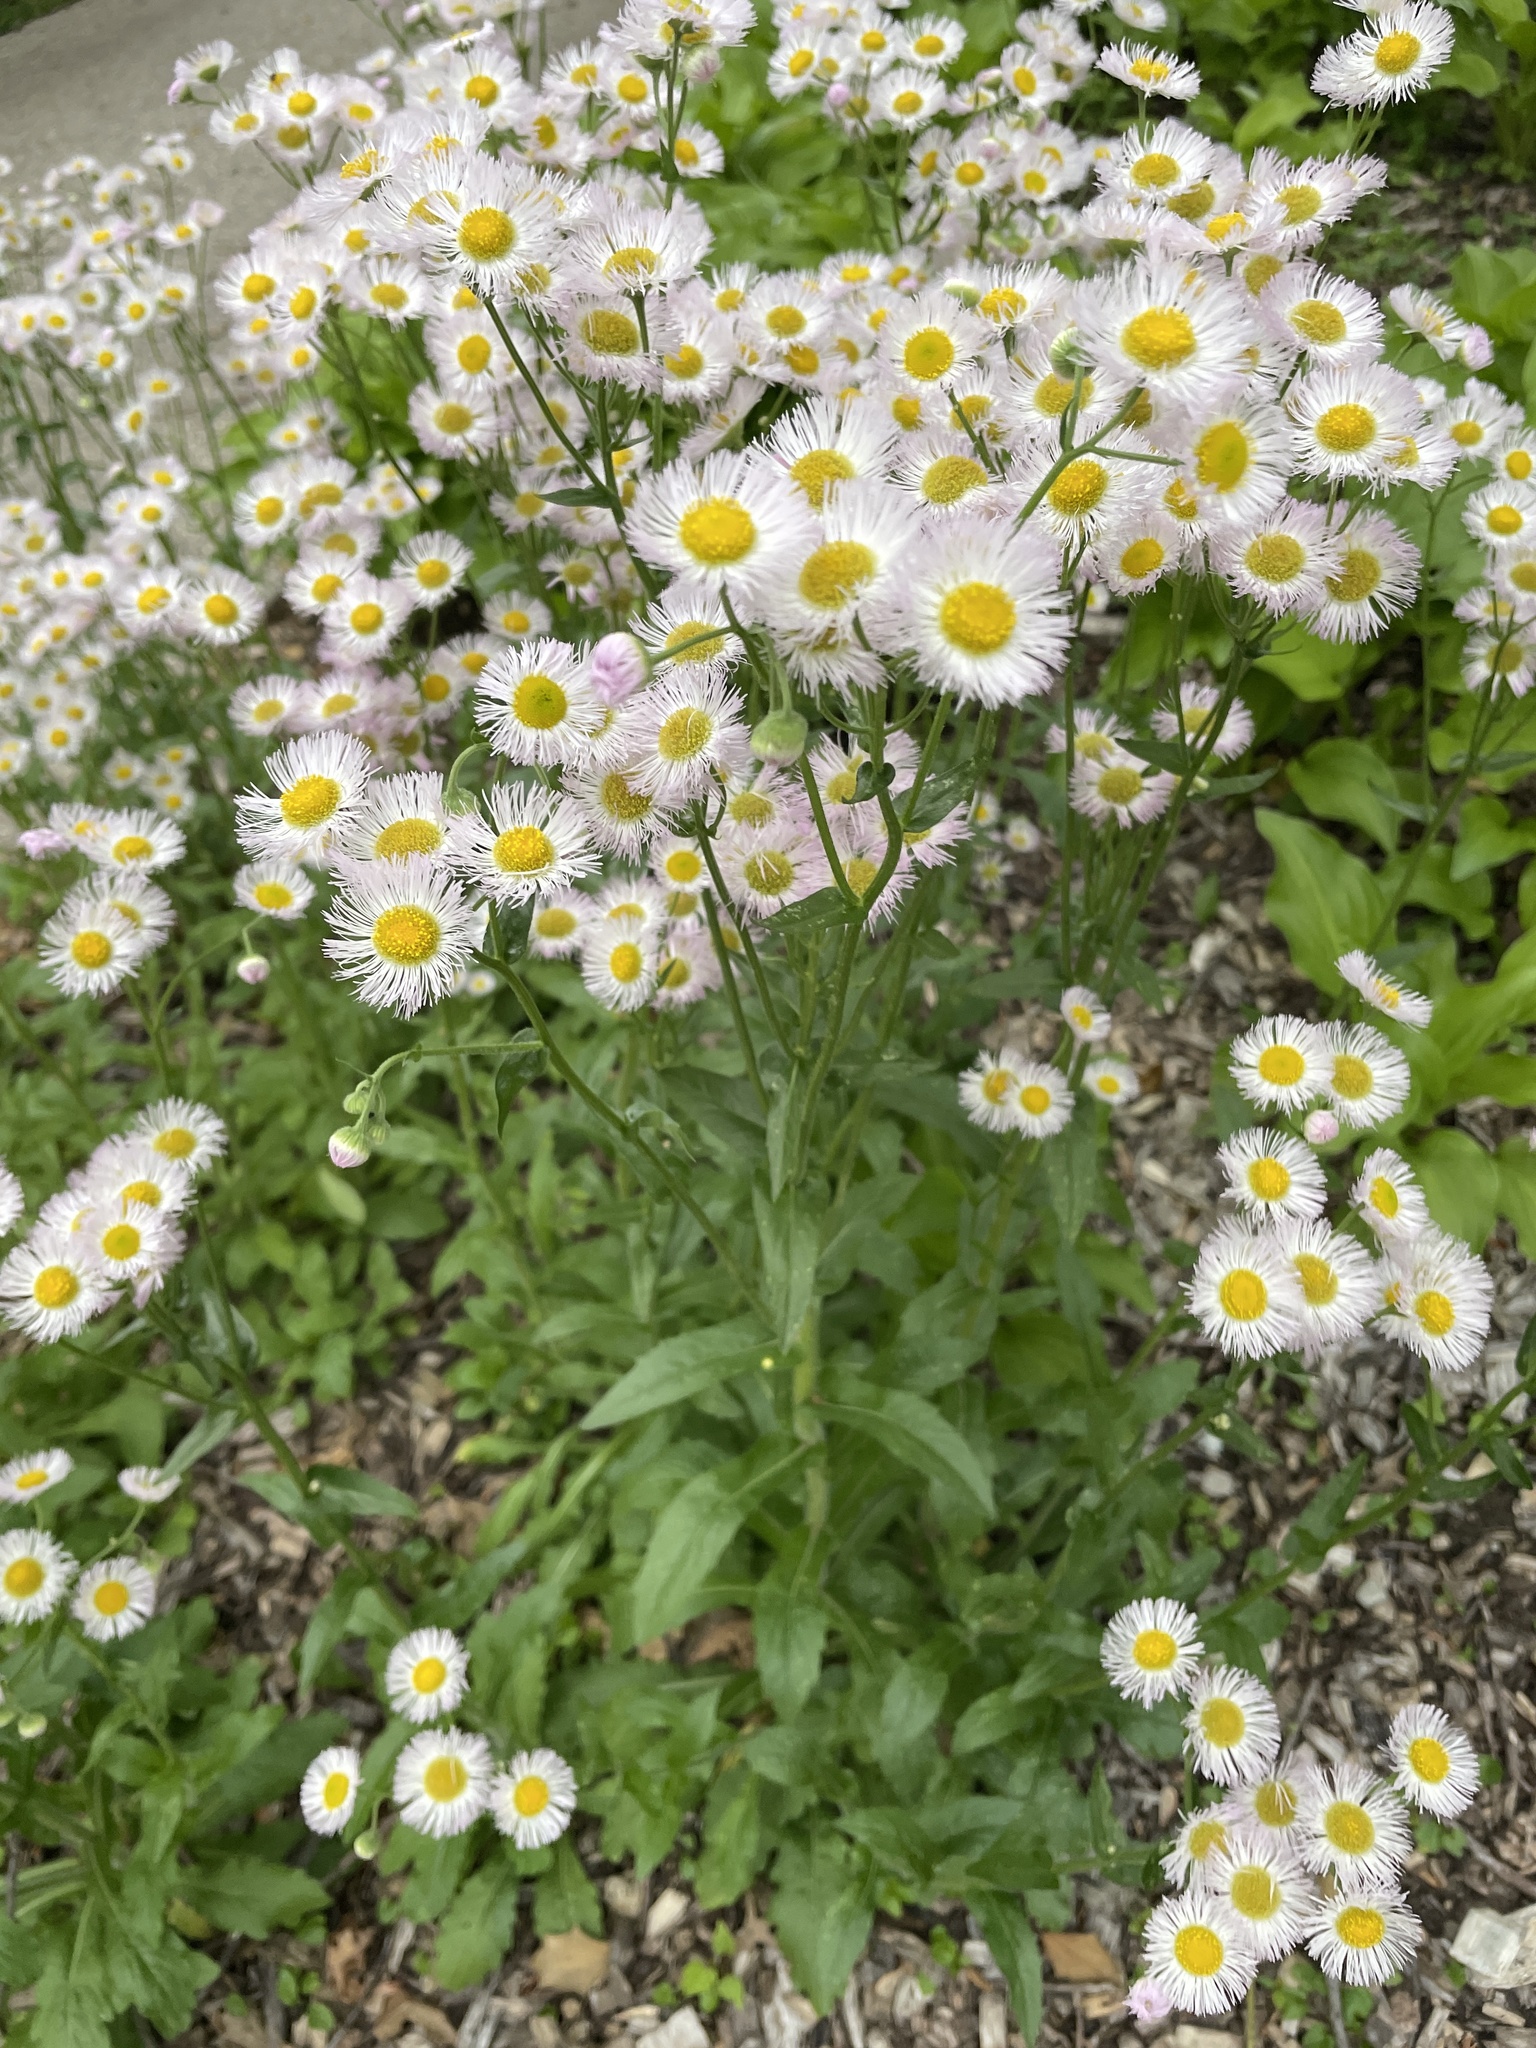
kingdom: Plantae
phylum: Tracheophyta
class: Magnoliopsida
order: Asterales
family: Asteraceae
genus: Erigeron
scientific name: Erigeron philadelphicus
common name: Robin's-plantain
